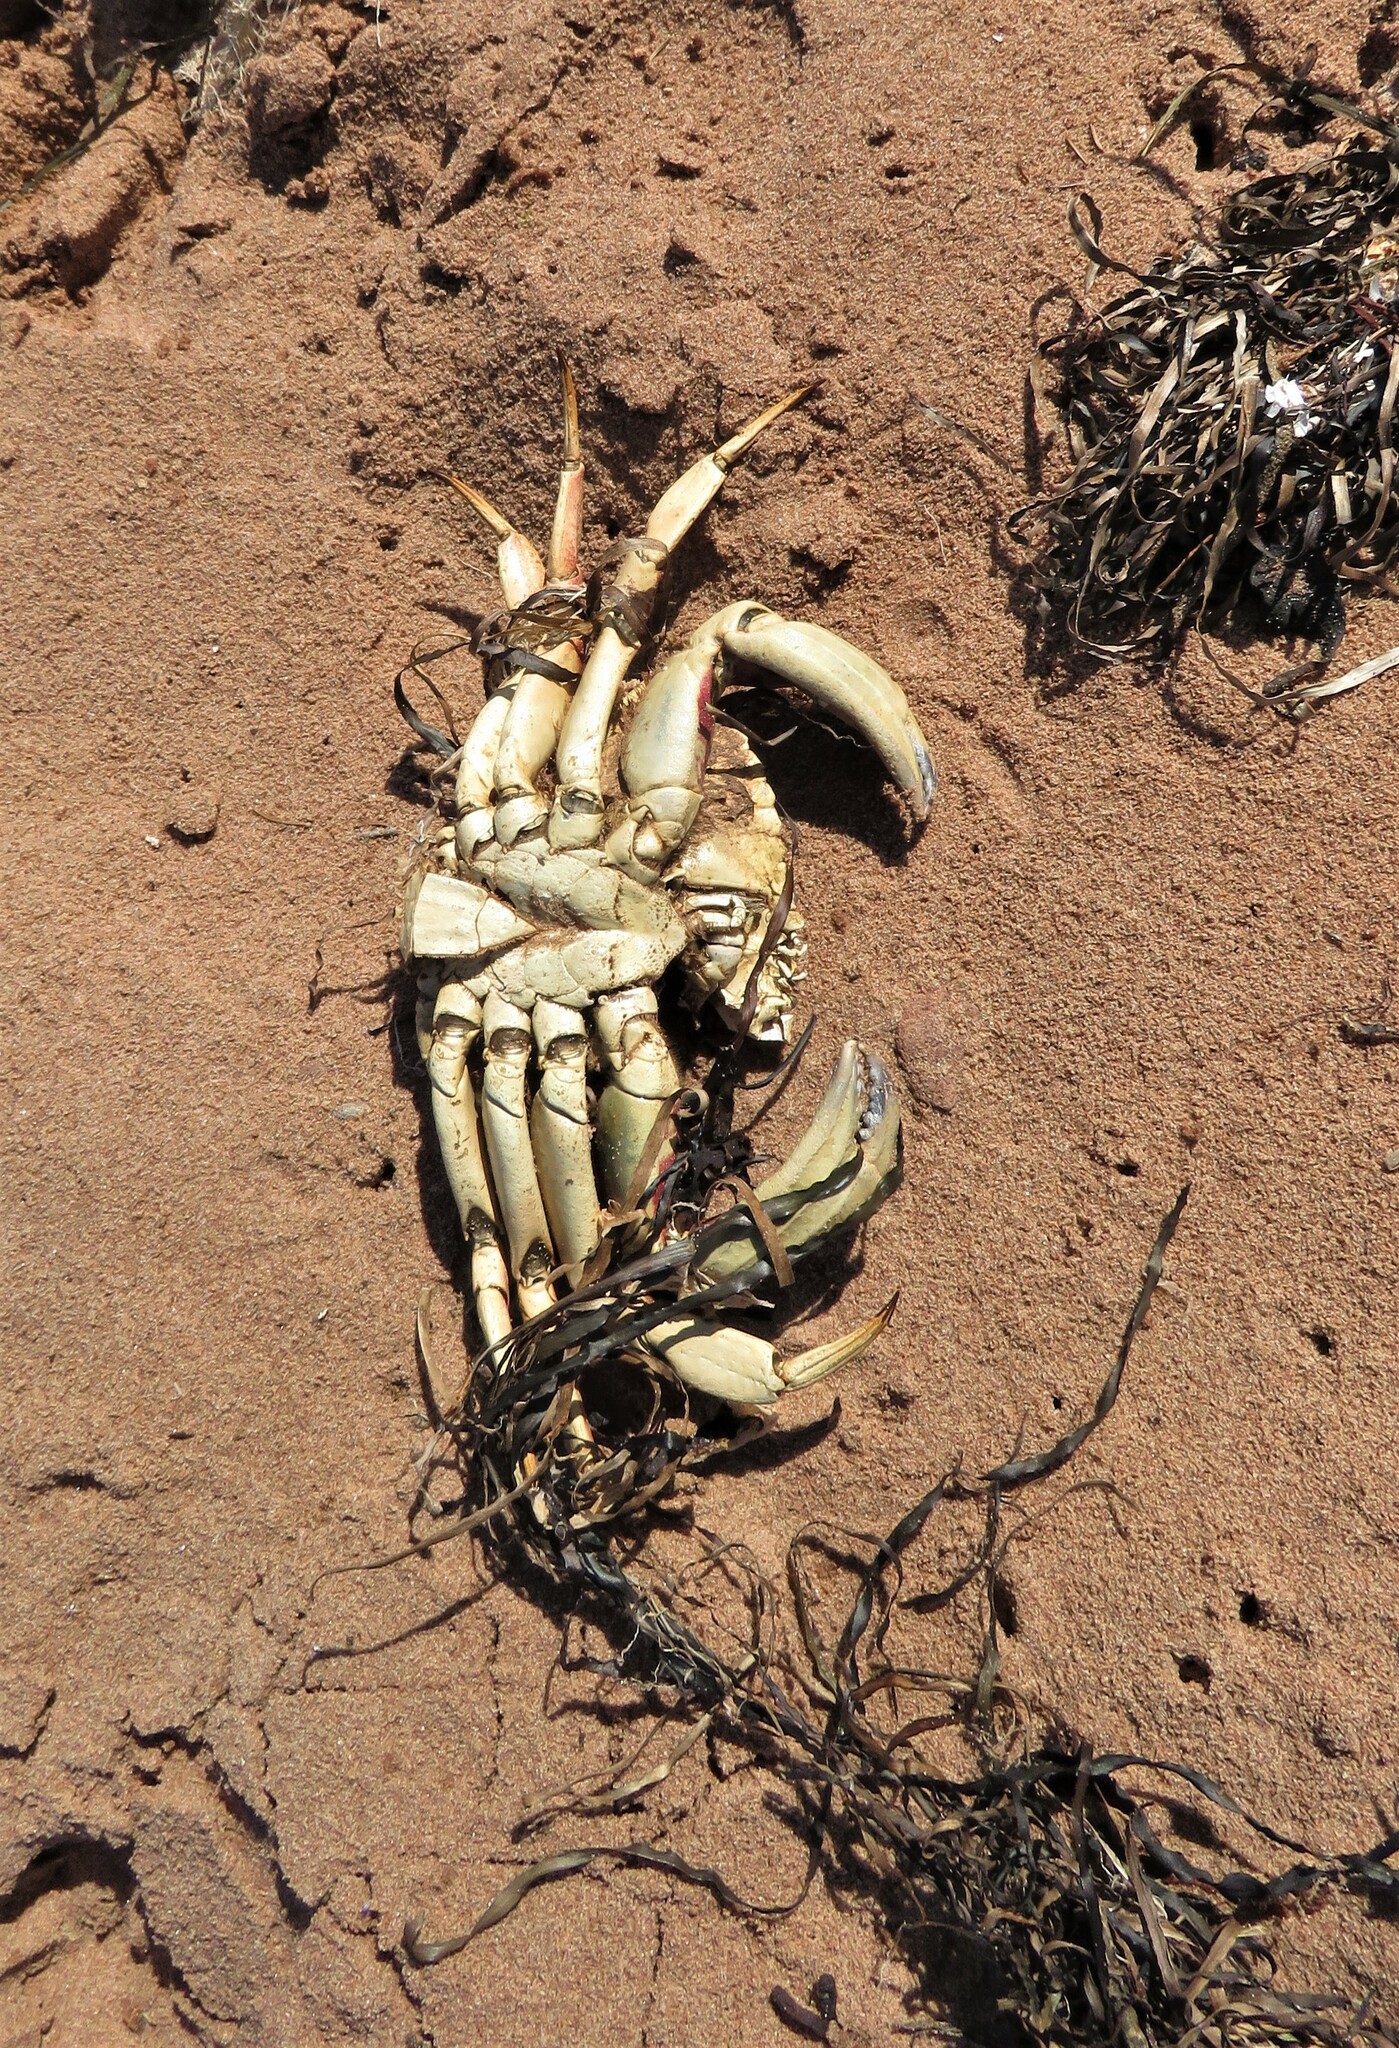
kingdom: Animalia
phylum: Arthropoda
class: Malacostraca
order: Decapoda
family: Cancridae
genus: Cancer
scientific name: Cancer irroratus
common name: Atlantic rock crab
